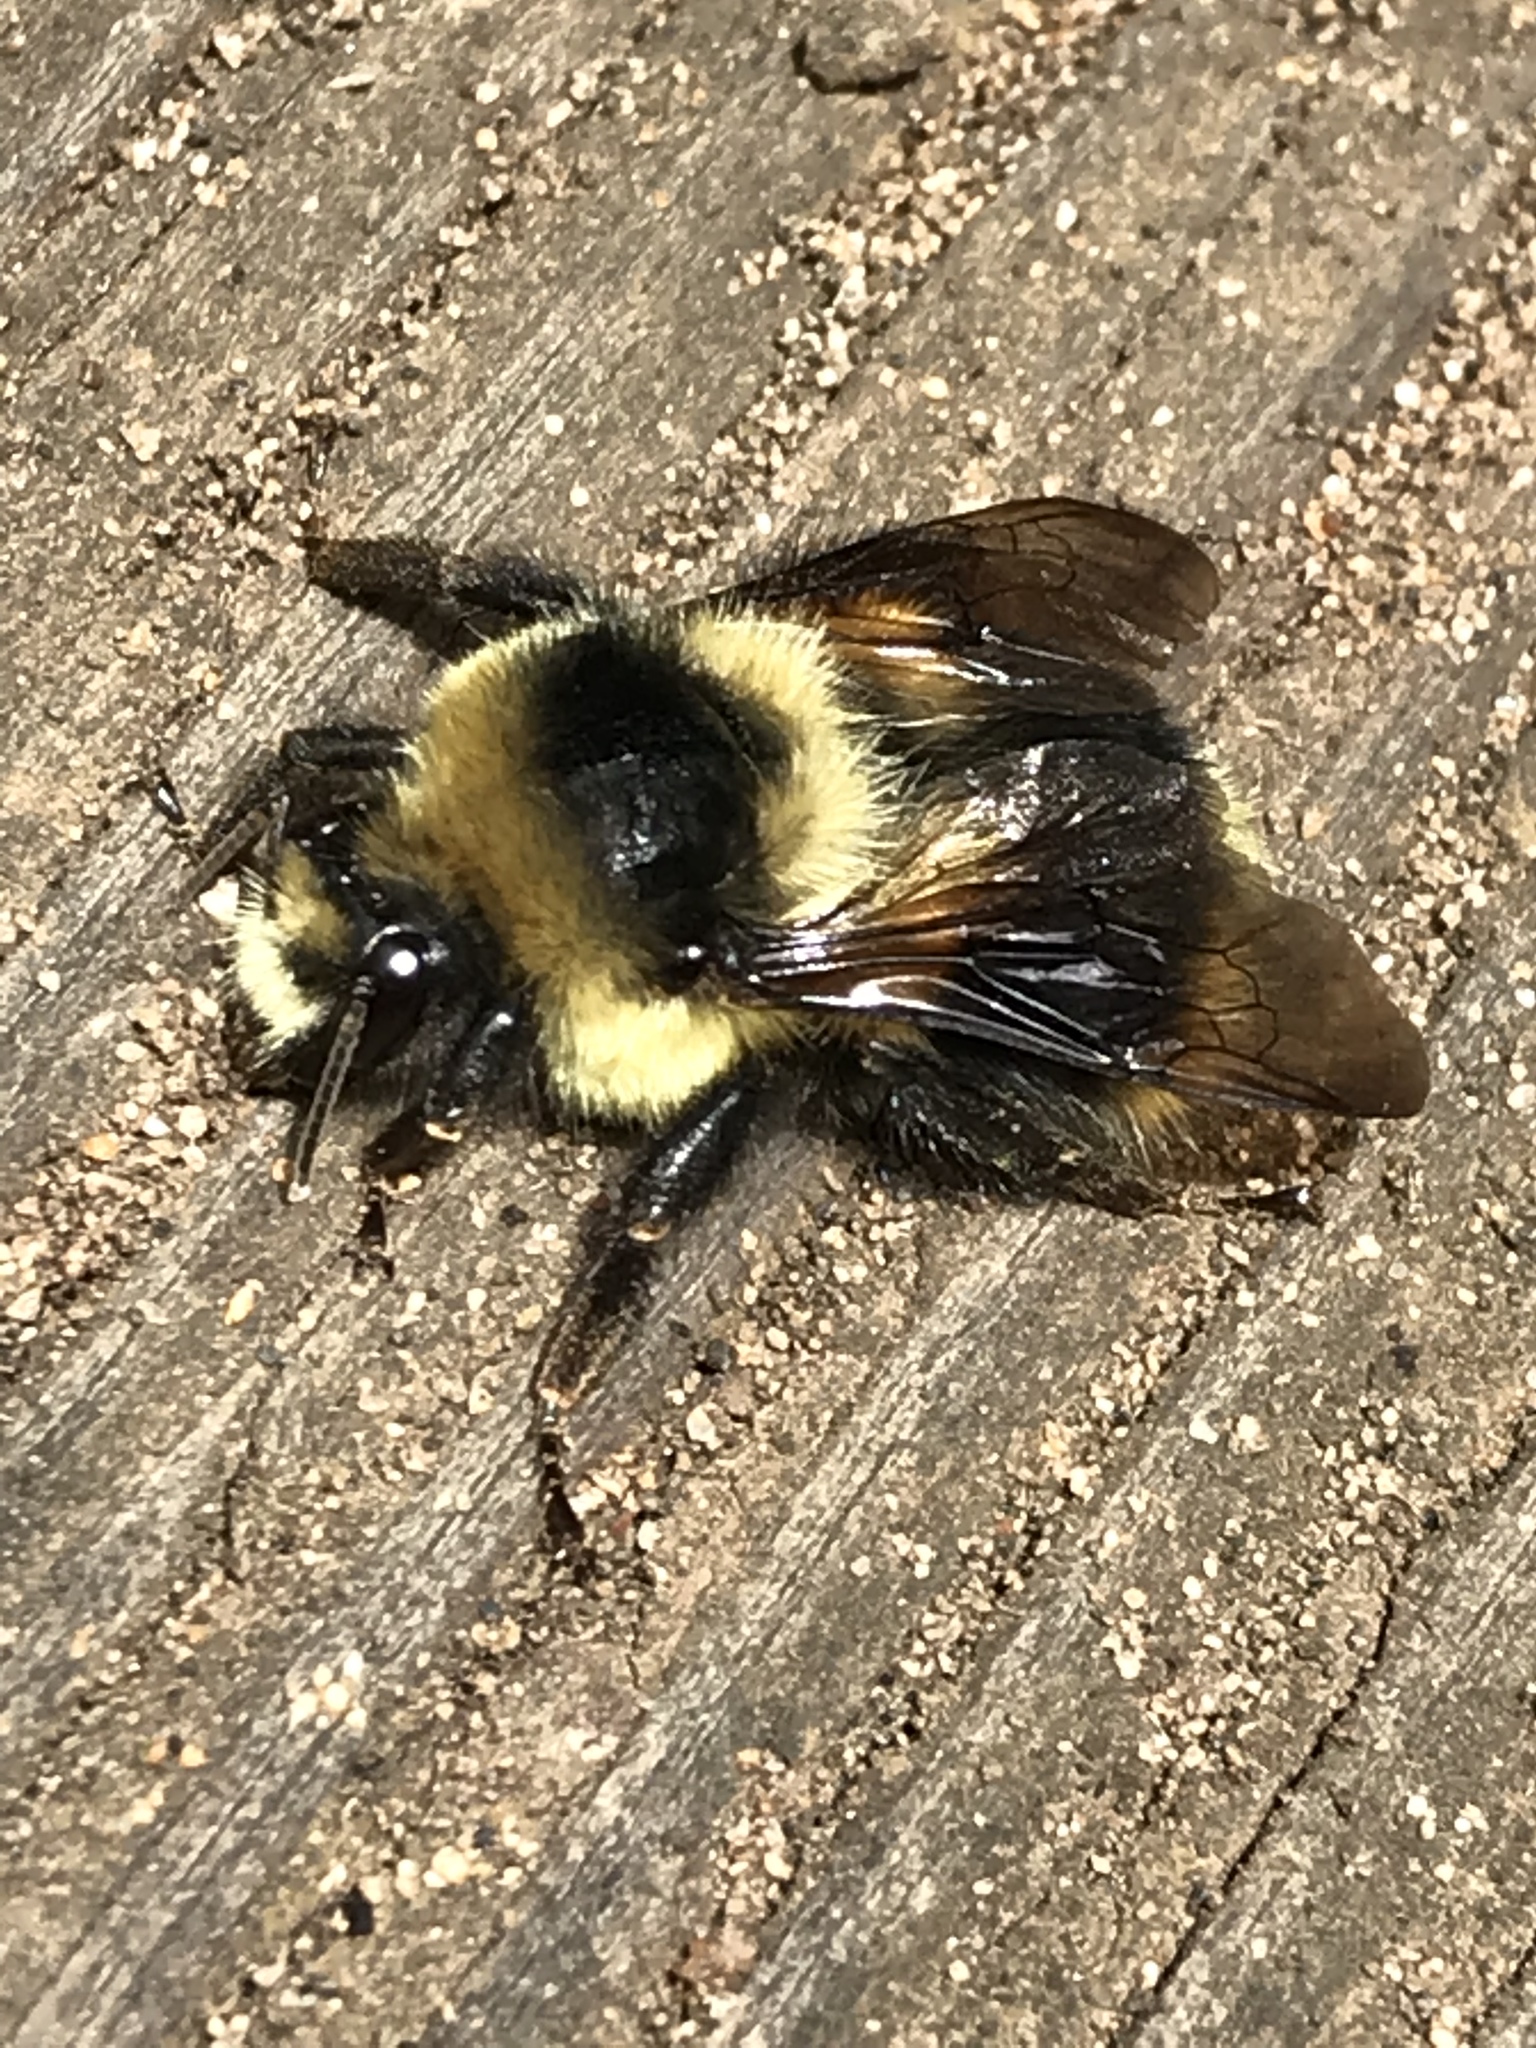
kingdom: Animalia
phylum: Arthropoda
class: Insecta
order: Hymenoptera
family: Apidae
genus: Bombus
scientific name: Bombus melanopygus
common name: Black tail bumble bee
